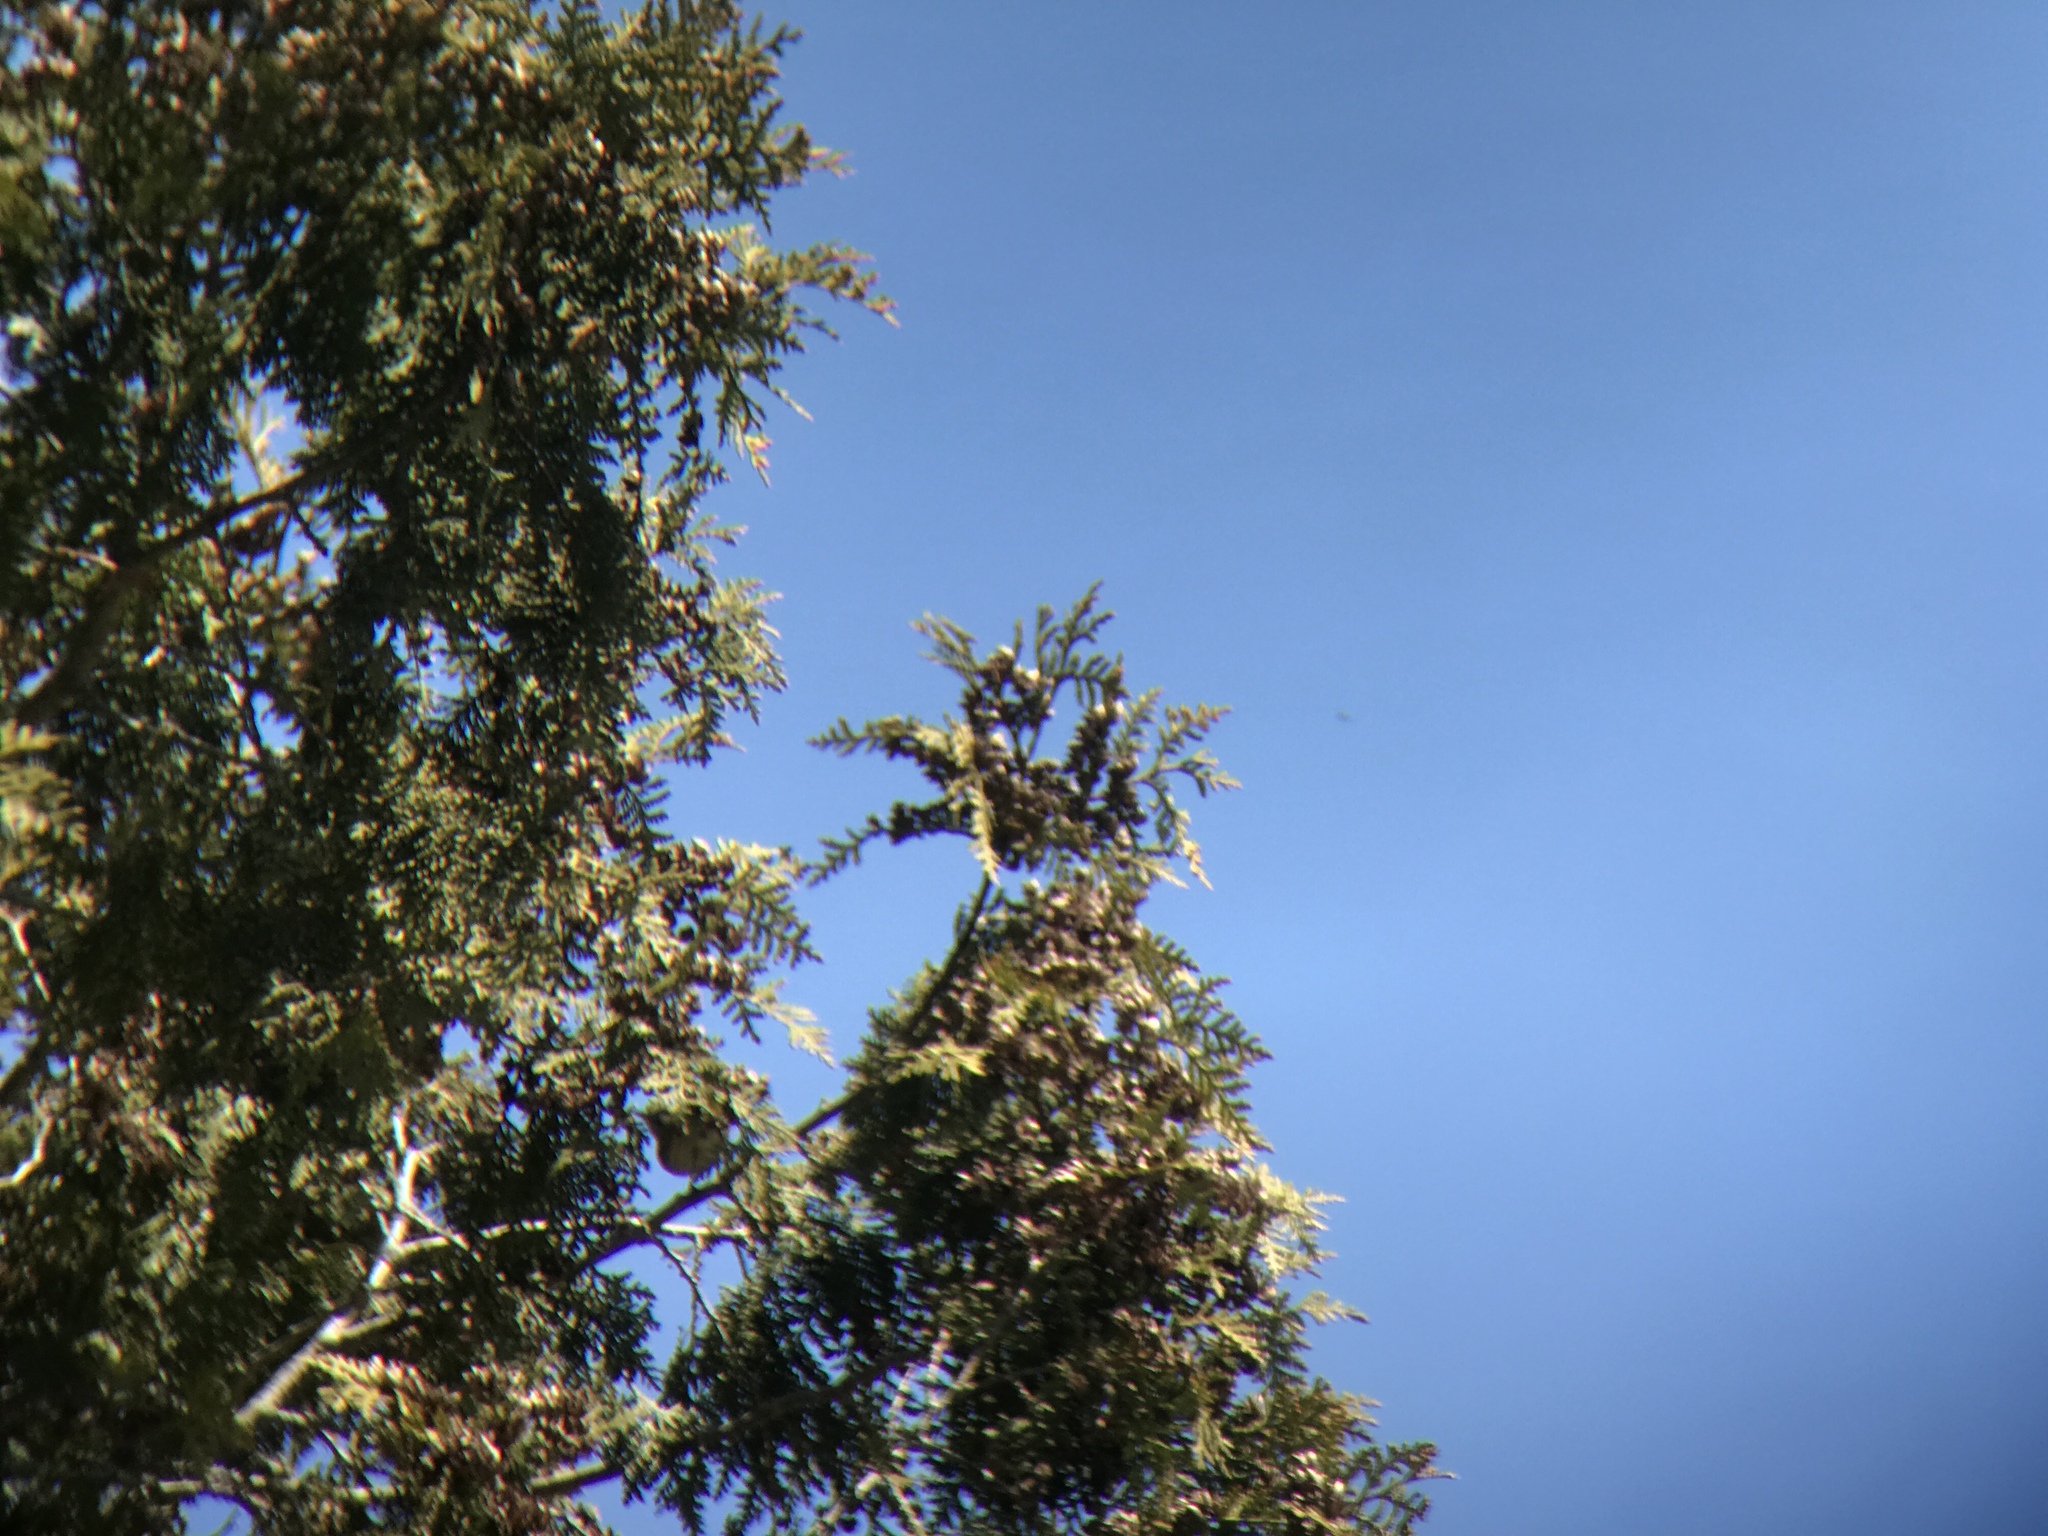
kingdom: Animalia
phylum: Chordata
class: Aves
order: Passeriformes
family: Parulidae
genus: Setophaga
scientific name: Setophaga coronata
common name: Myrtle warbler
